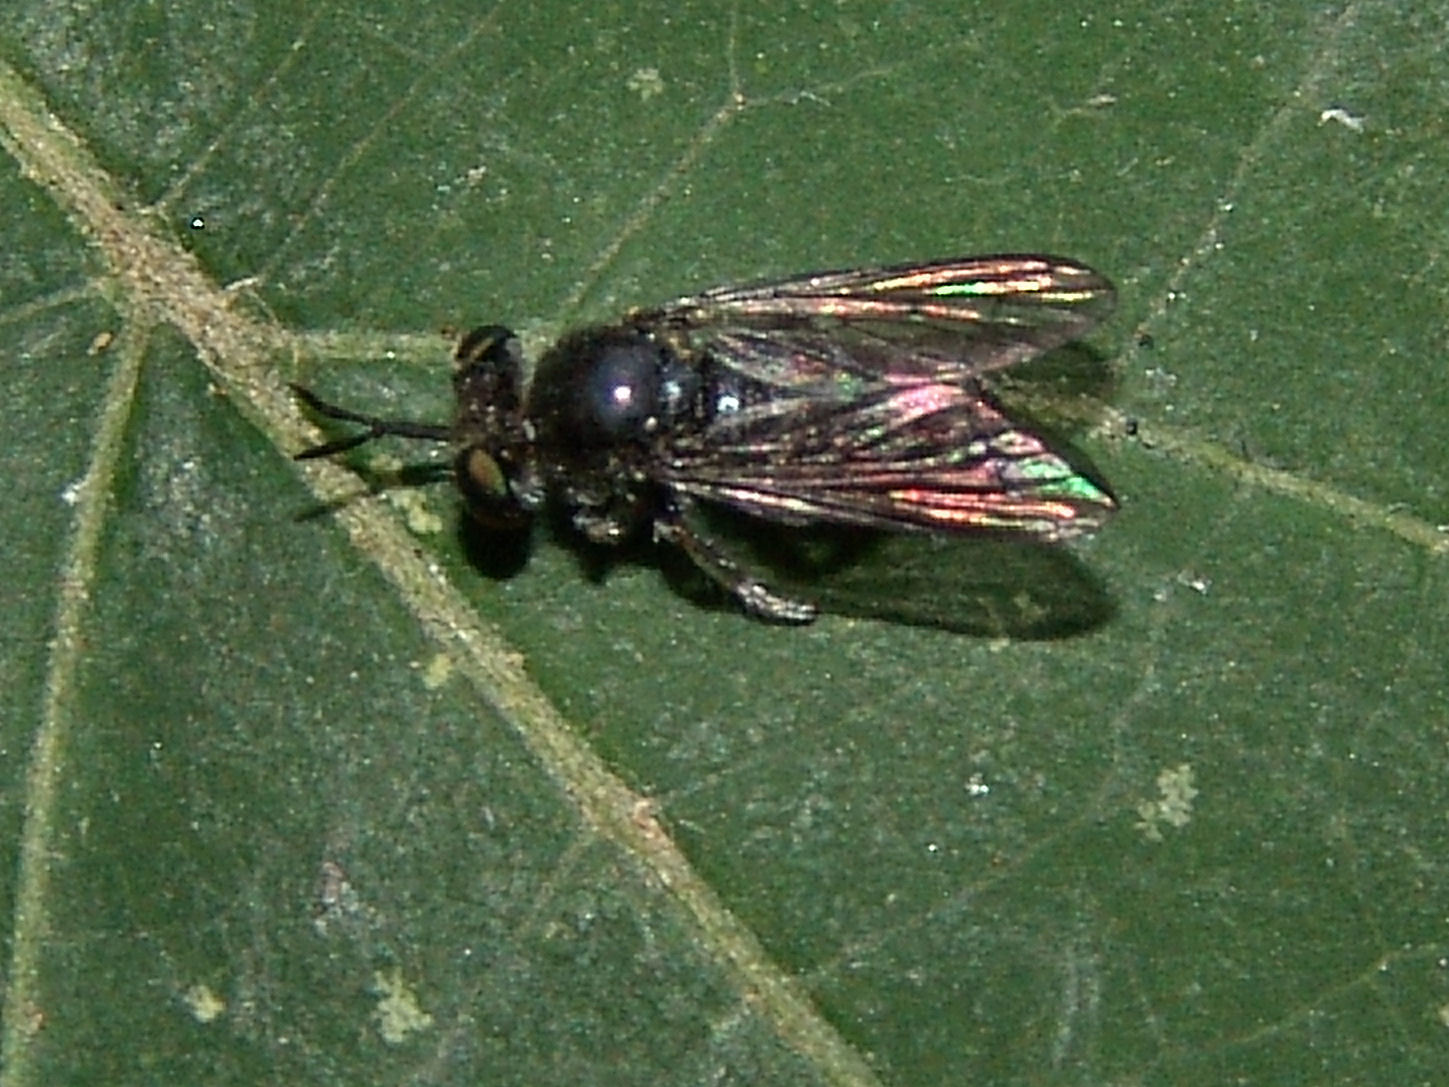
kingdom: Animalia
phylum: Arthropoda
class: Insecta
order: Diptera
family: Asilidae
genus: Cerotainia
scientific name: Cerotainia
